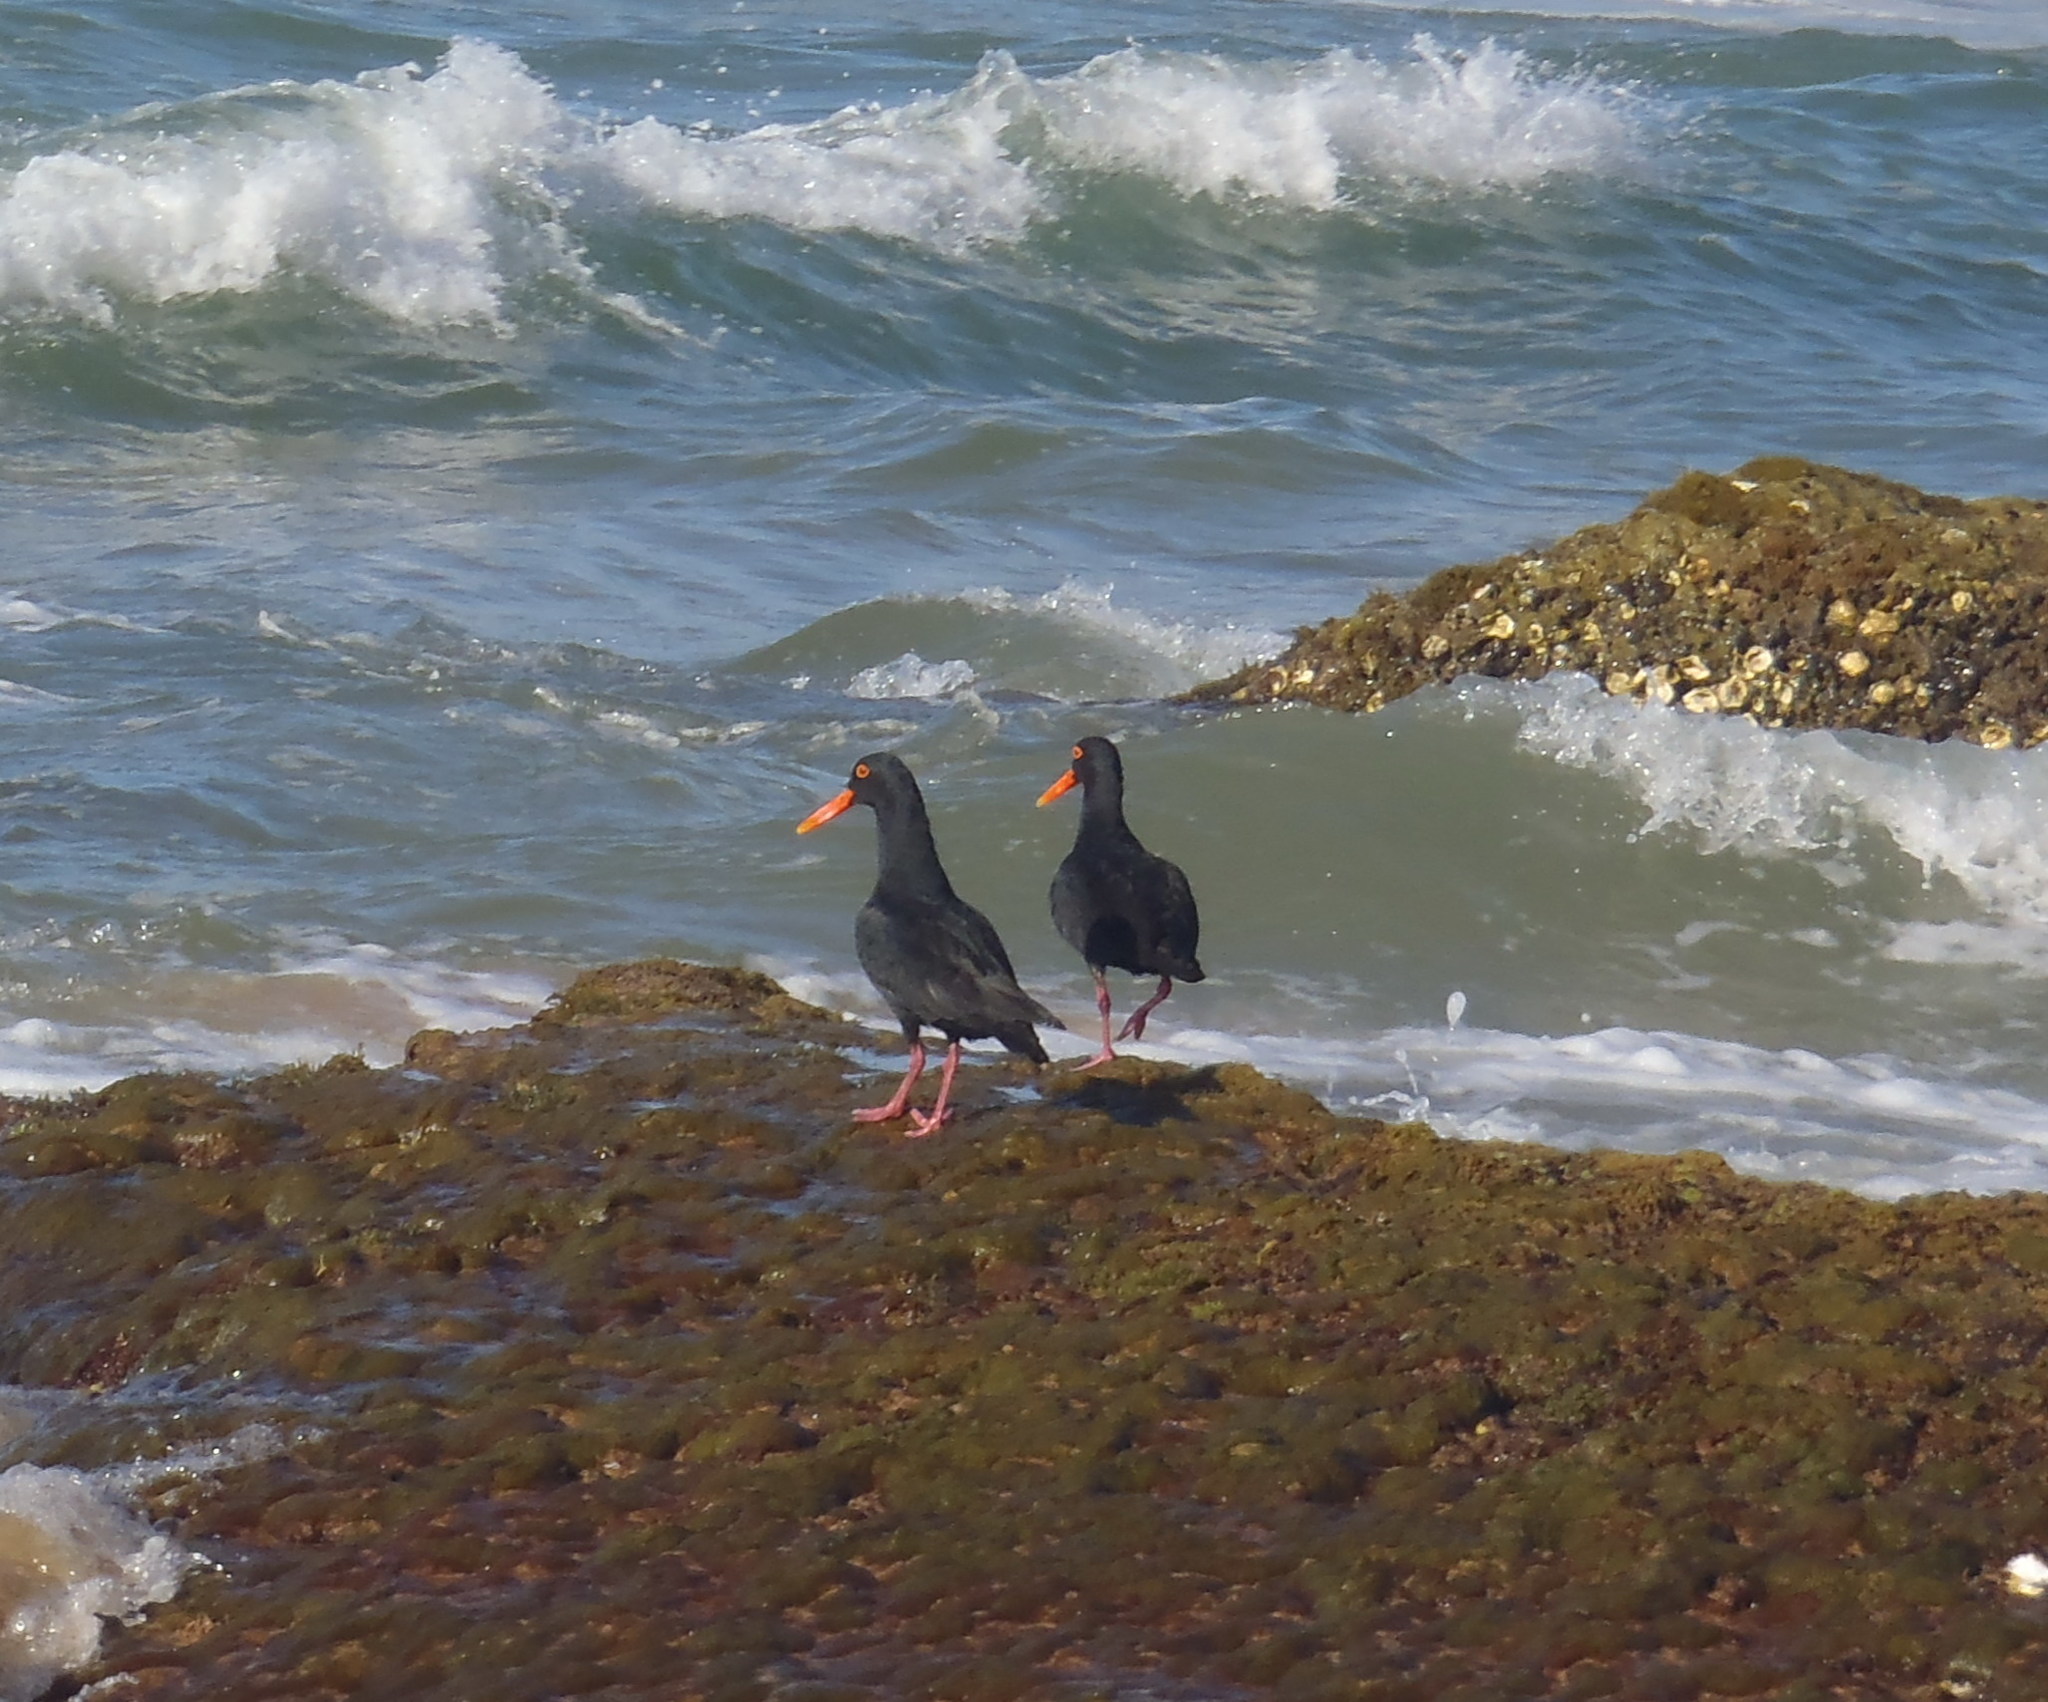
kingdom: Animalia
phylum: Chordata
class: Aves
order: Charadriiformes
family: Haematopodidae
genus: Haematopus
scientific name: Haematopus moquini
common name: African oystercatcher
